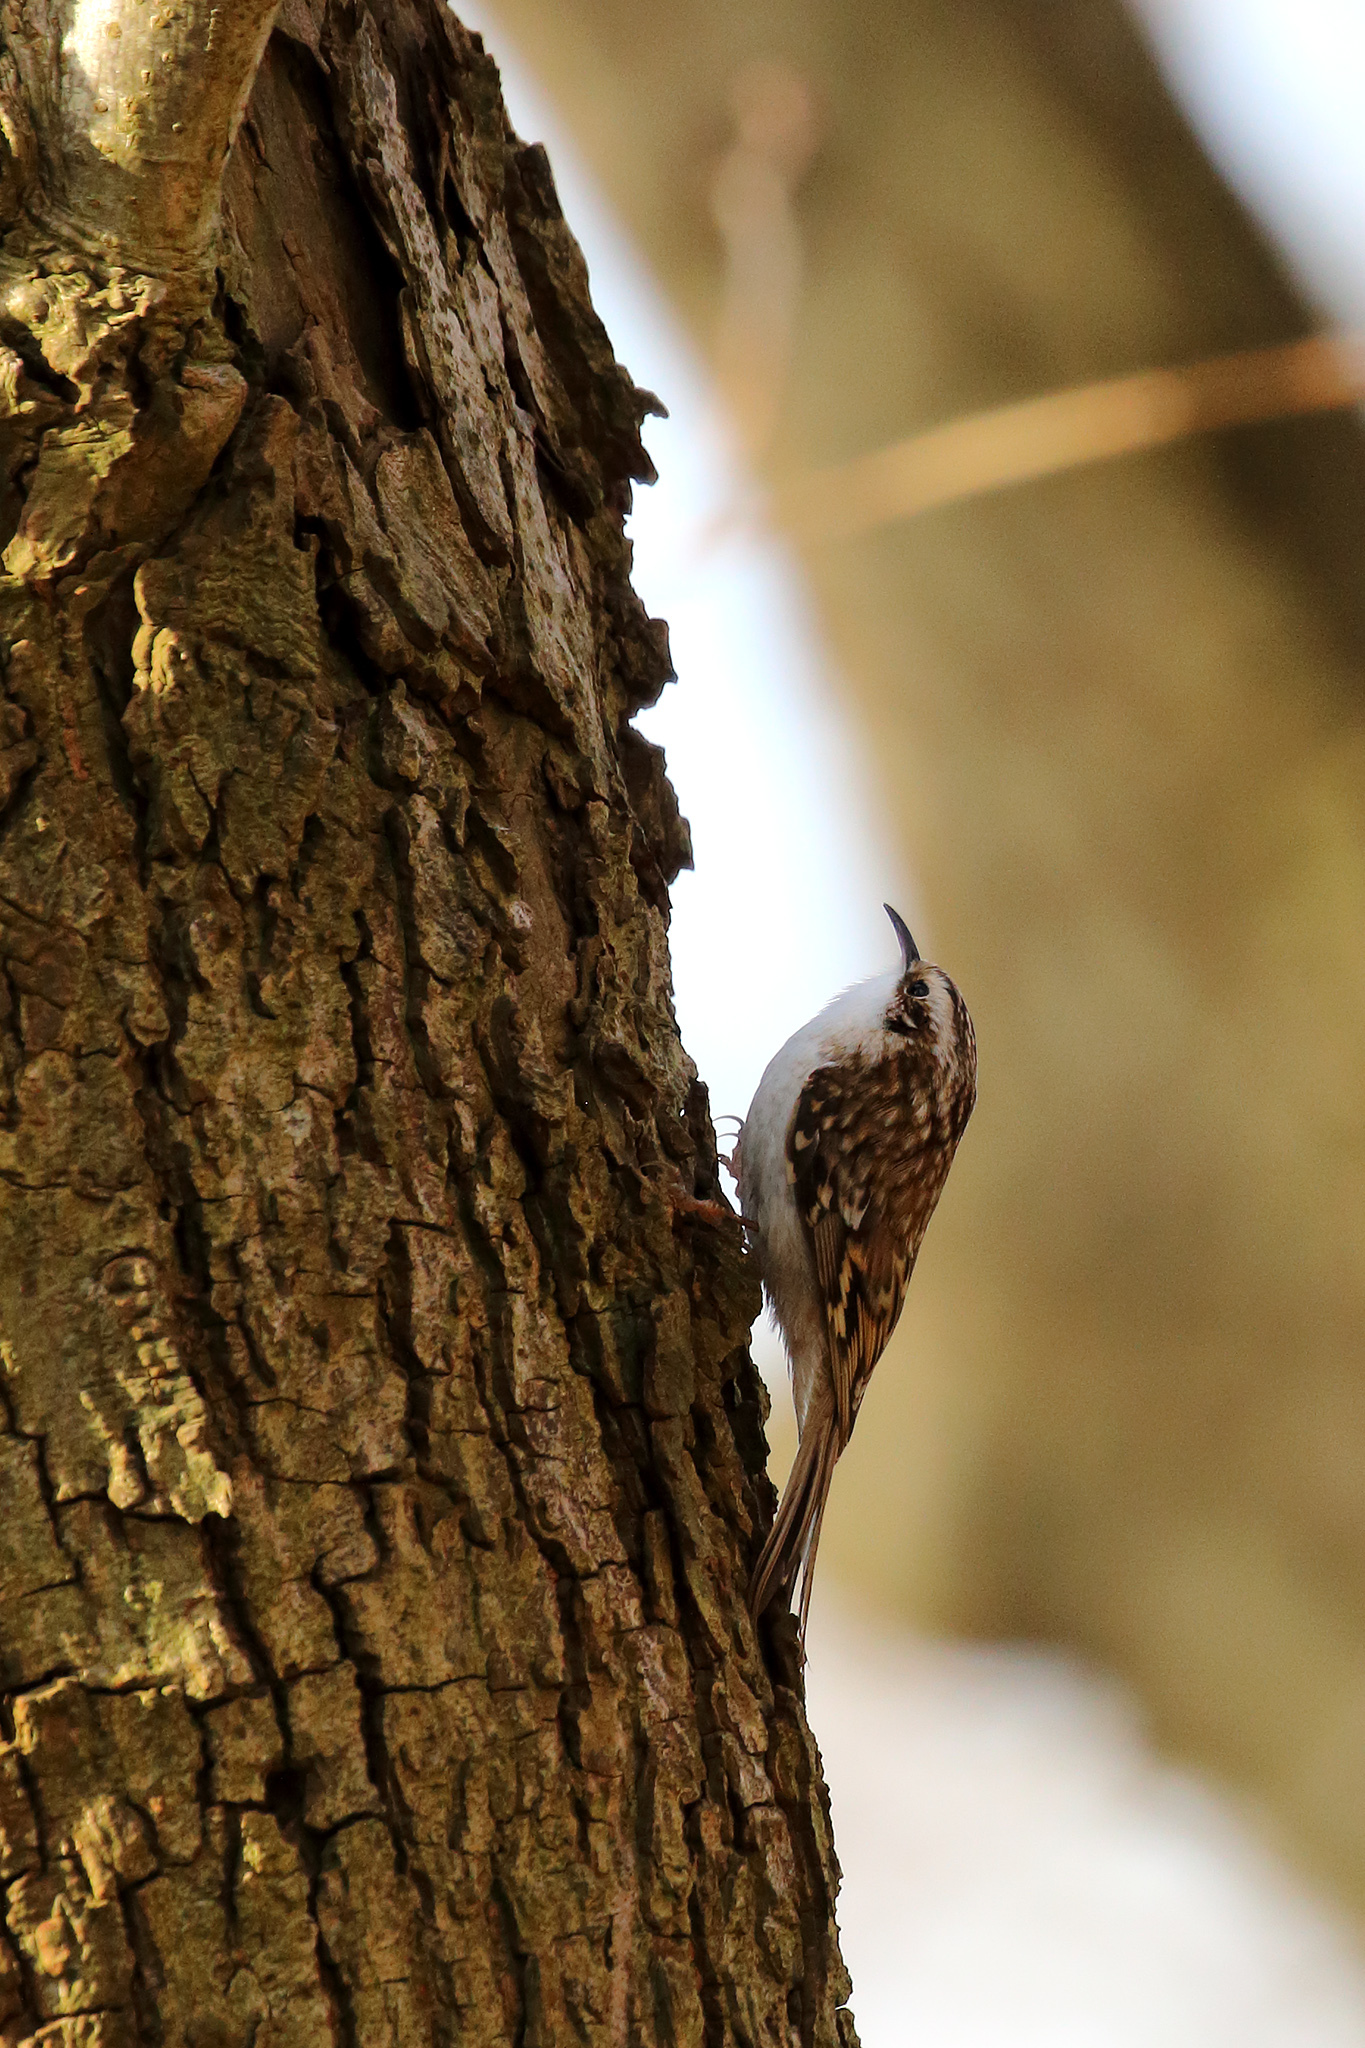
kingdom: Animalia
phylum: Chordata
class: Aves
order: Passeriformes
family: Certhiidae
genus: Certhia
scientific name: Certhia familiaris
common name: Eurasian treecreeper
